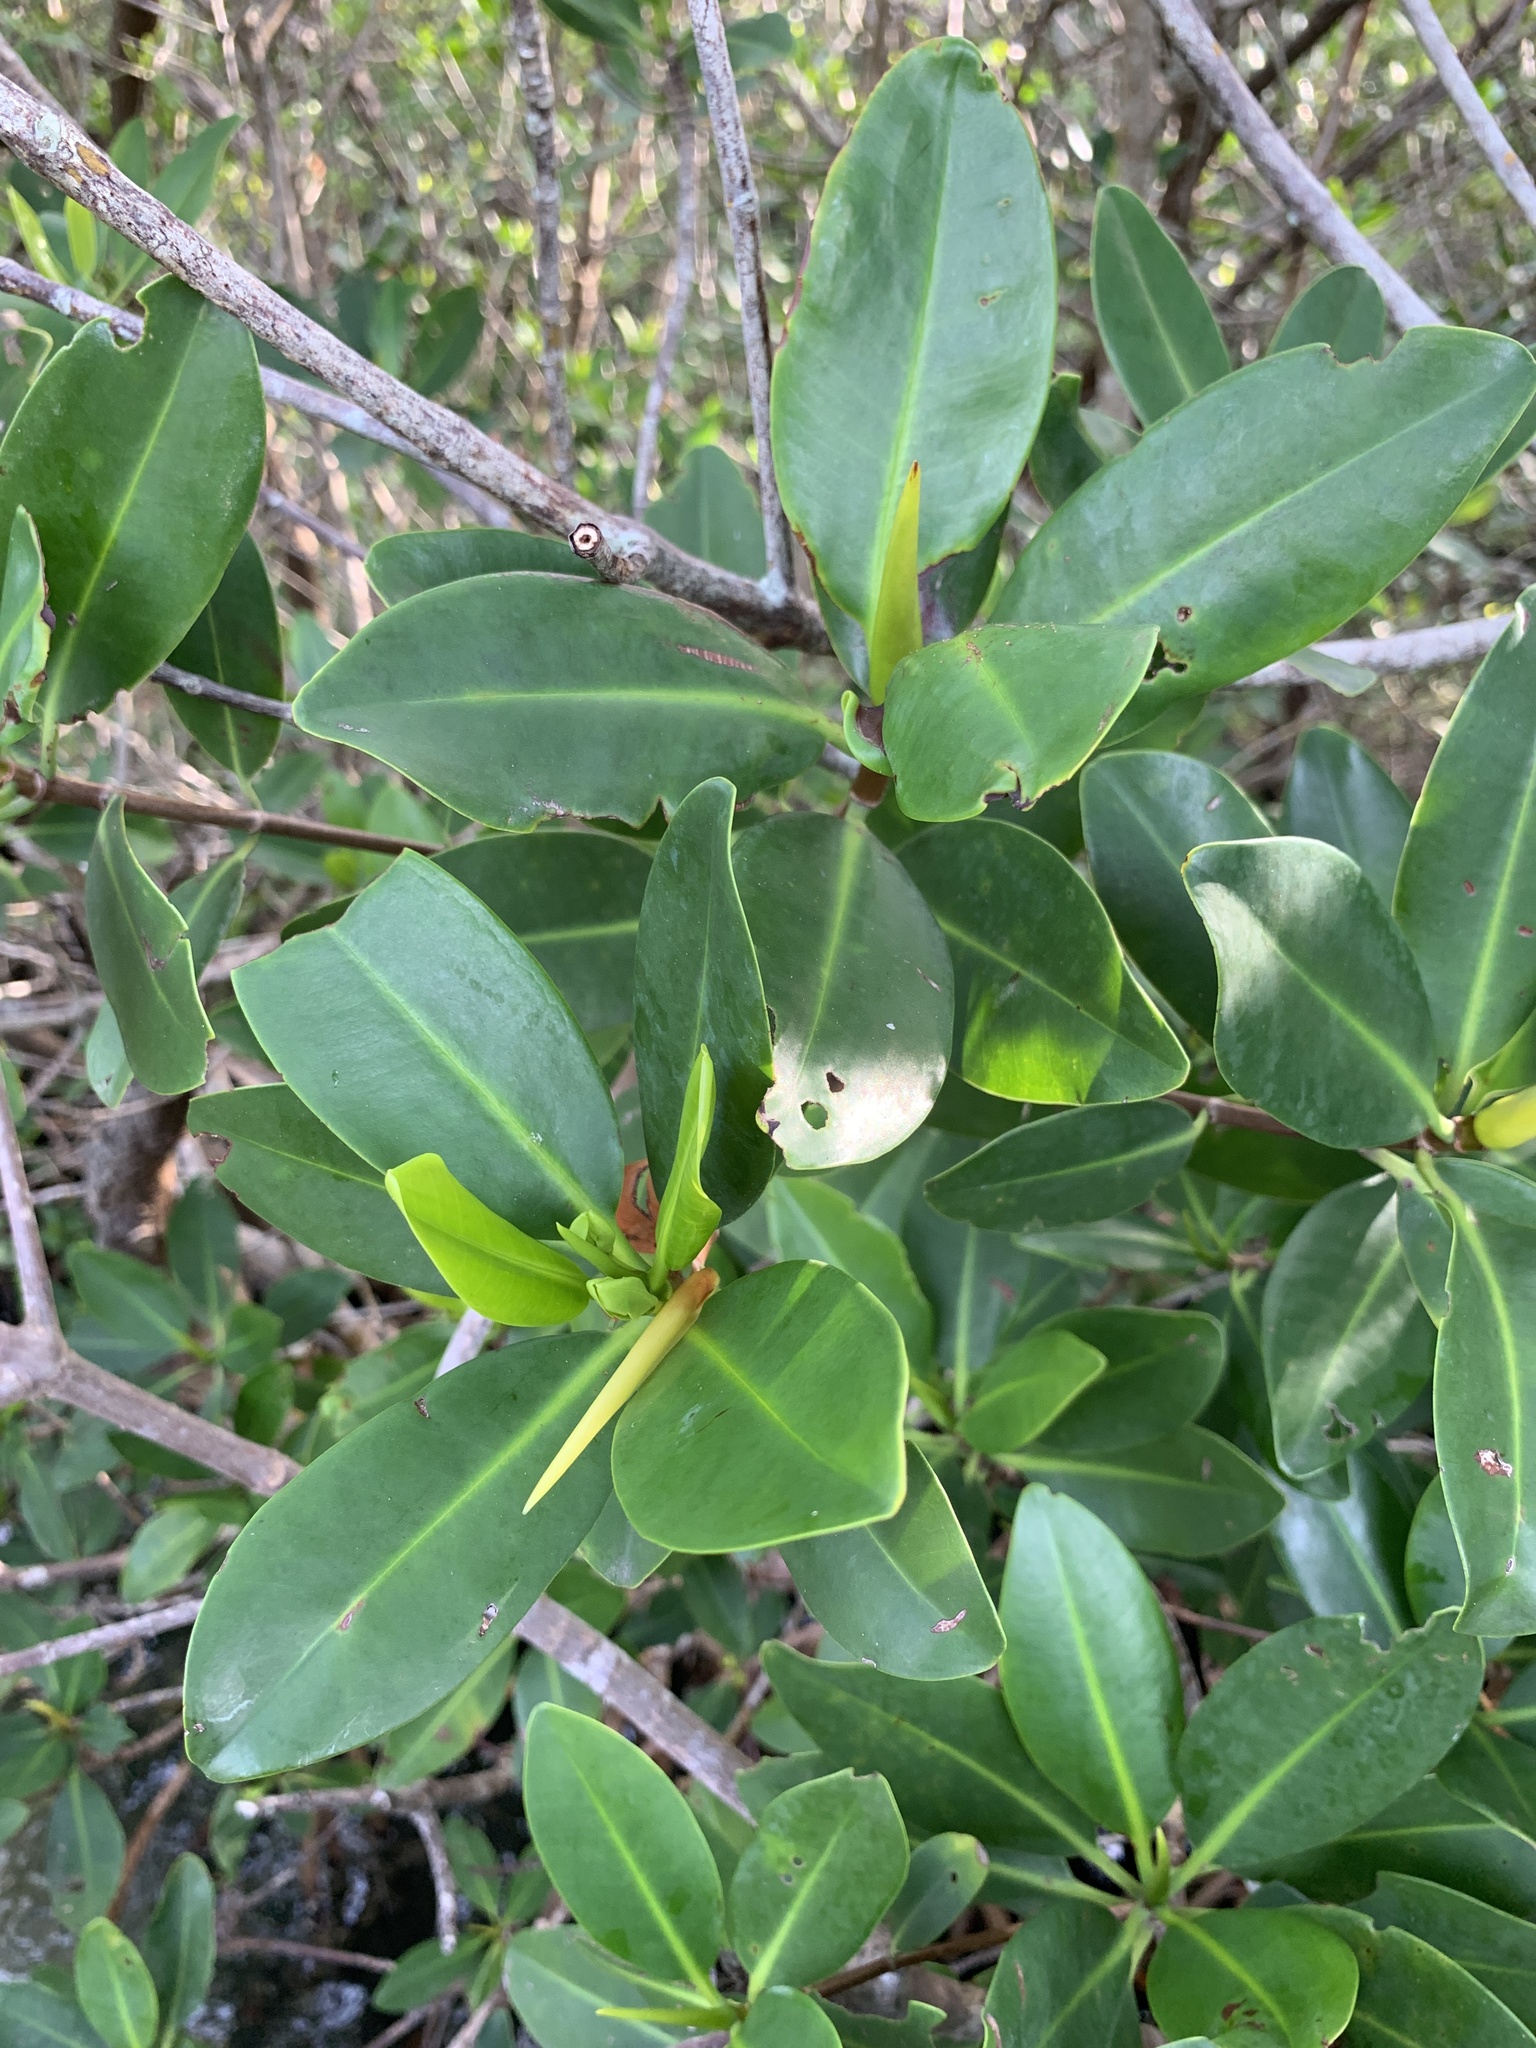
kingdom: Plantae
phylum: Tracheophyta
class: Magnoliopsida
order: Malpighiales
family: Rhizophoraceae
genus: Rhizophora
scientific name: Rhizophora mangle
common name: Red mangrove
